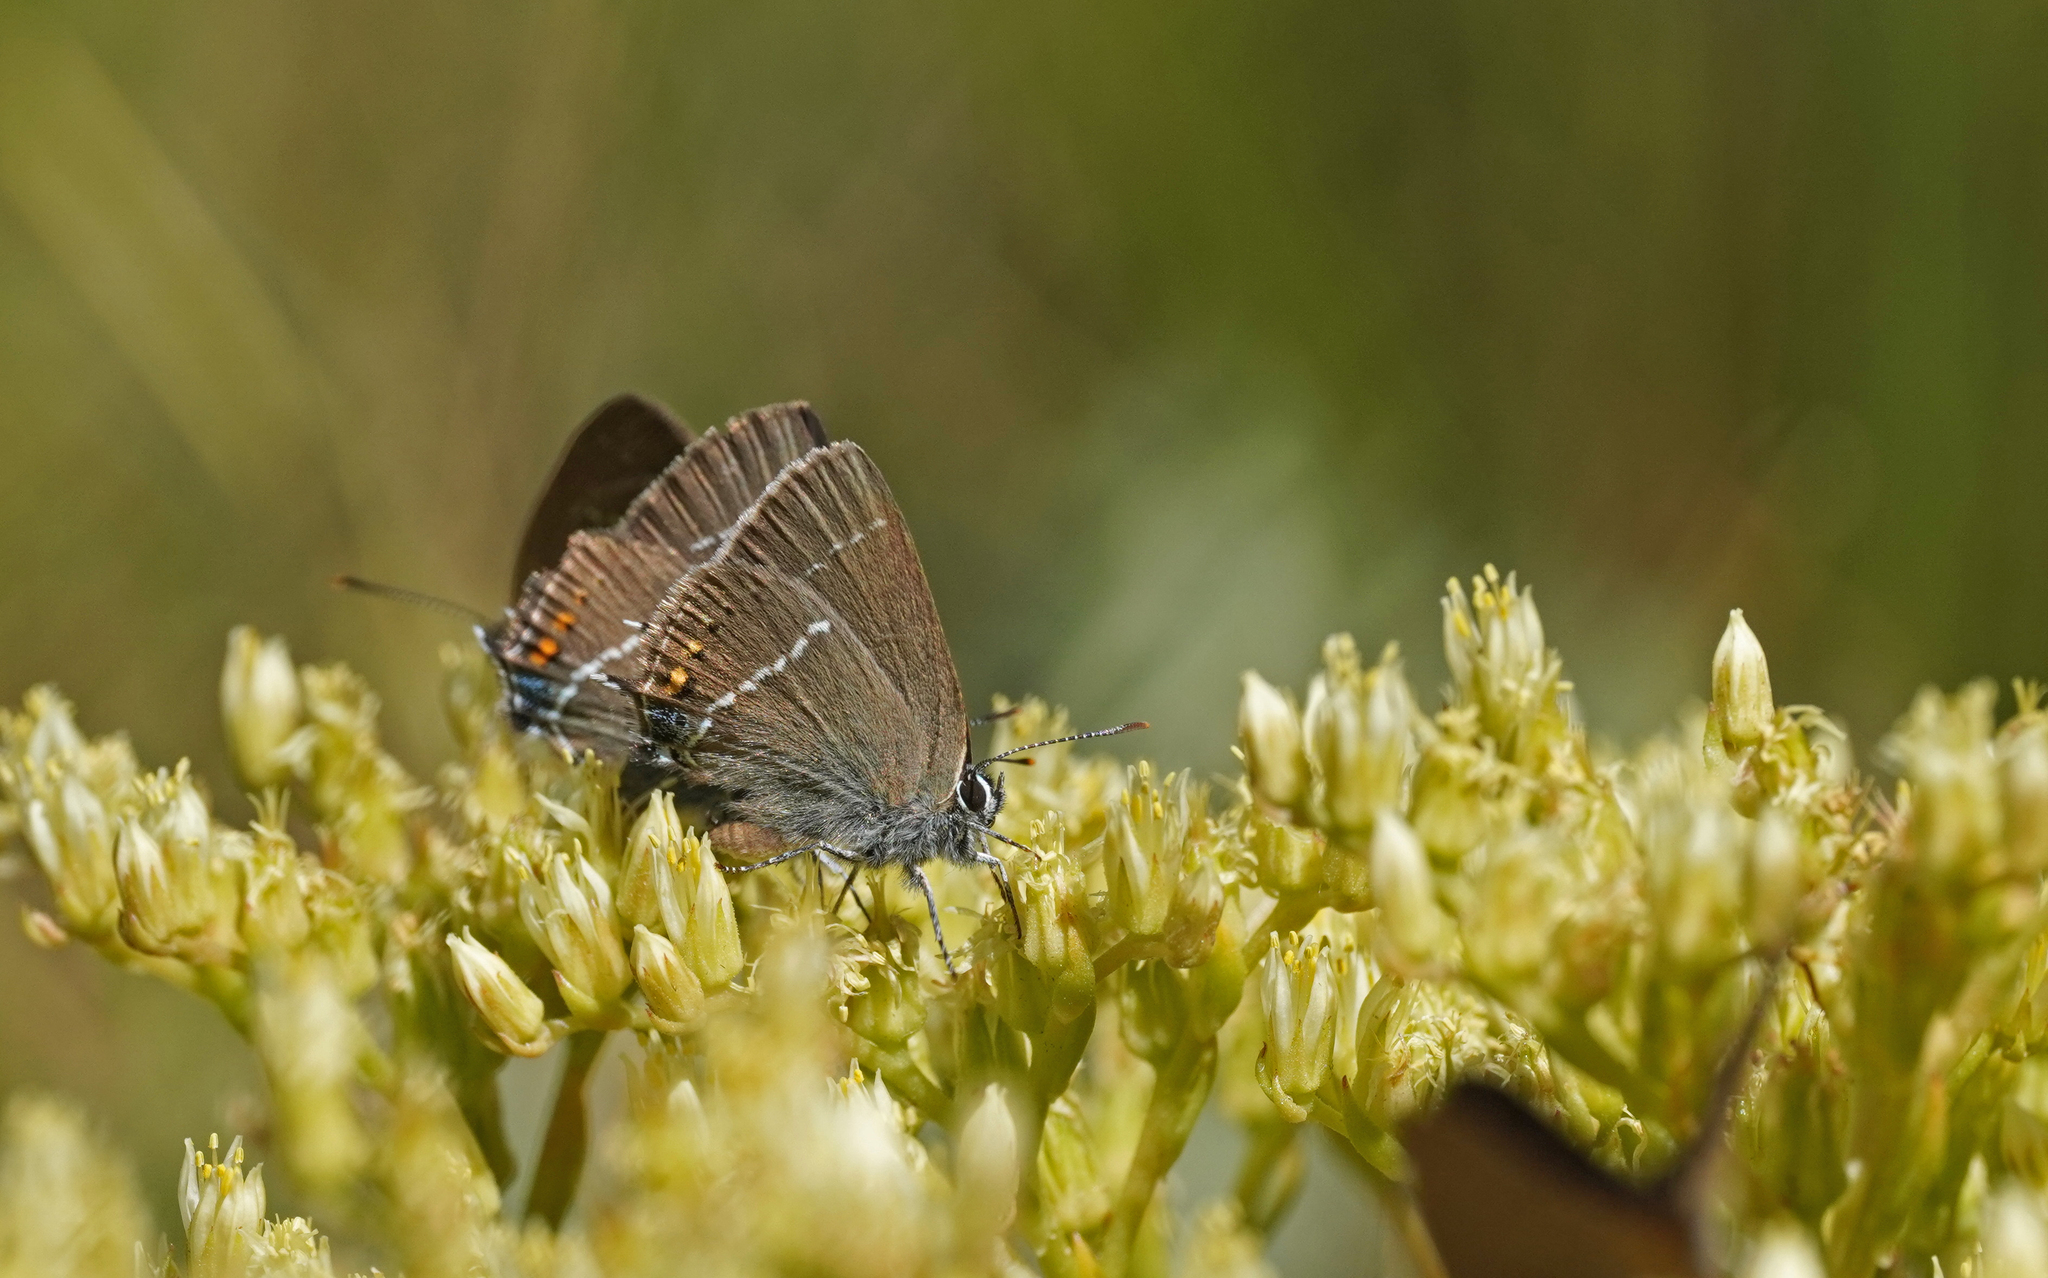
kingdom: Animalia
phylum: Arthropoda
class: Insecta
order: Lepidoptera
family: Lycaenidae
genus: Tuttiola
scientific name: Tuttiola spini
